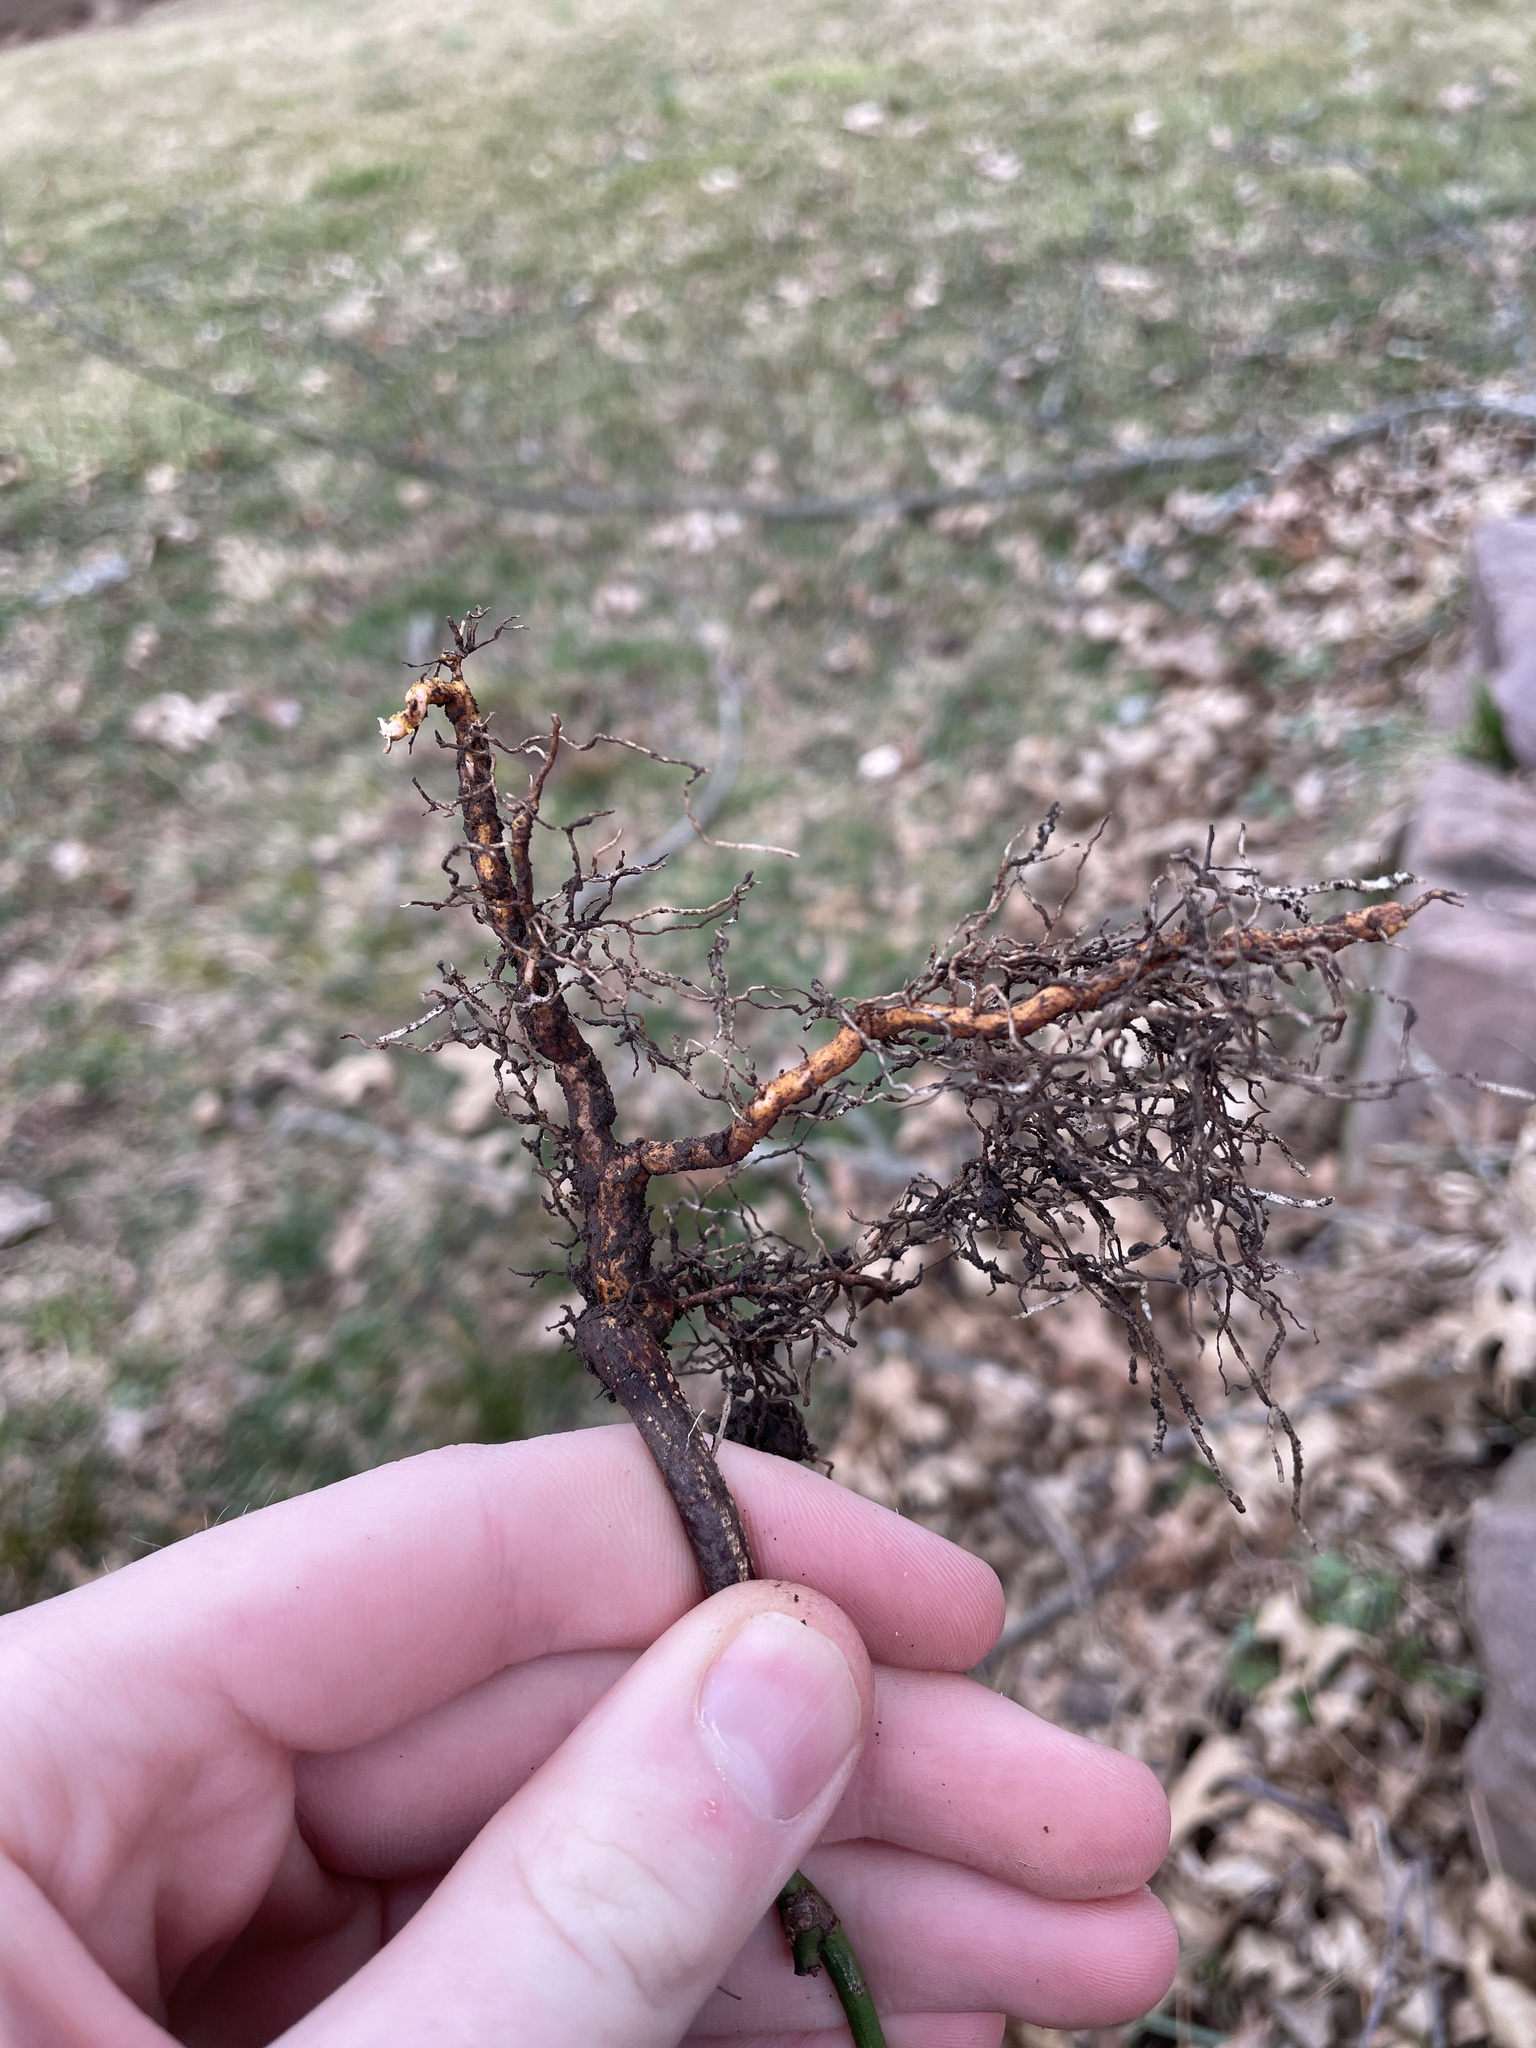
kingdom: Plantae
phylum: Tracheophyta
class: Magnoliopsida
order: Celastrales
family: Celastraceae
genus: Euonymus
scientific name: Euonymus fortunei
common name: Climbing euonymus
